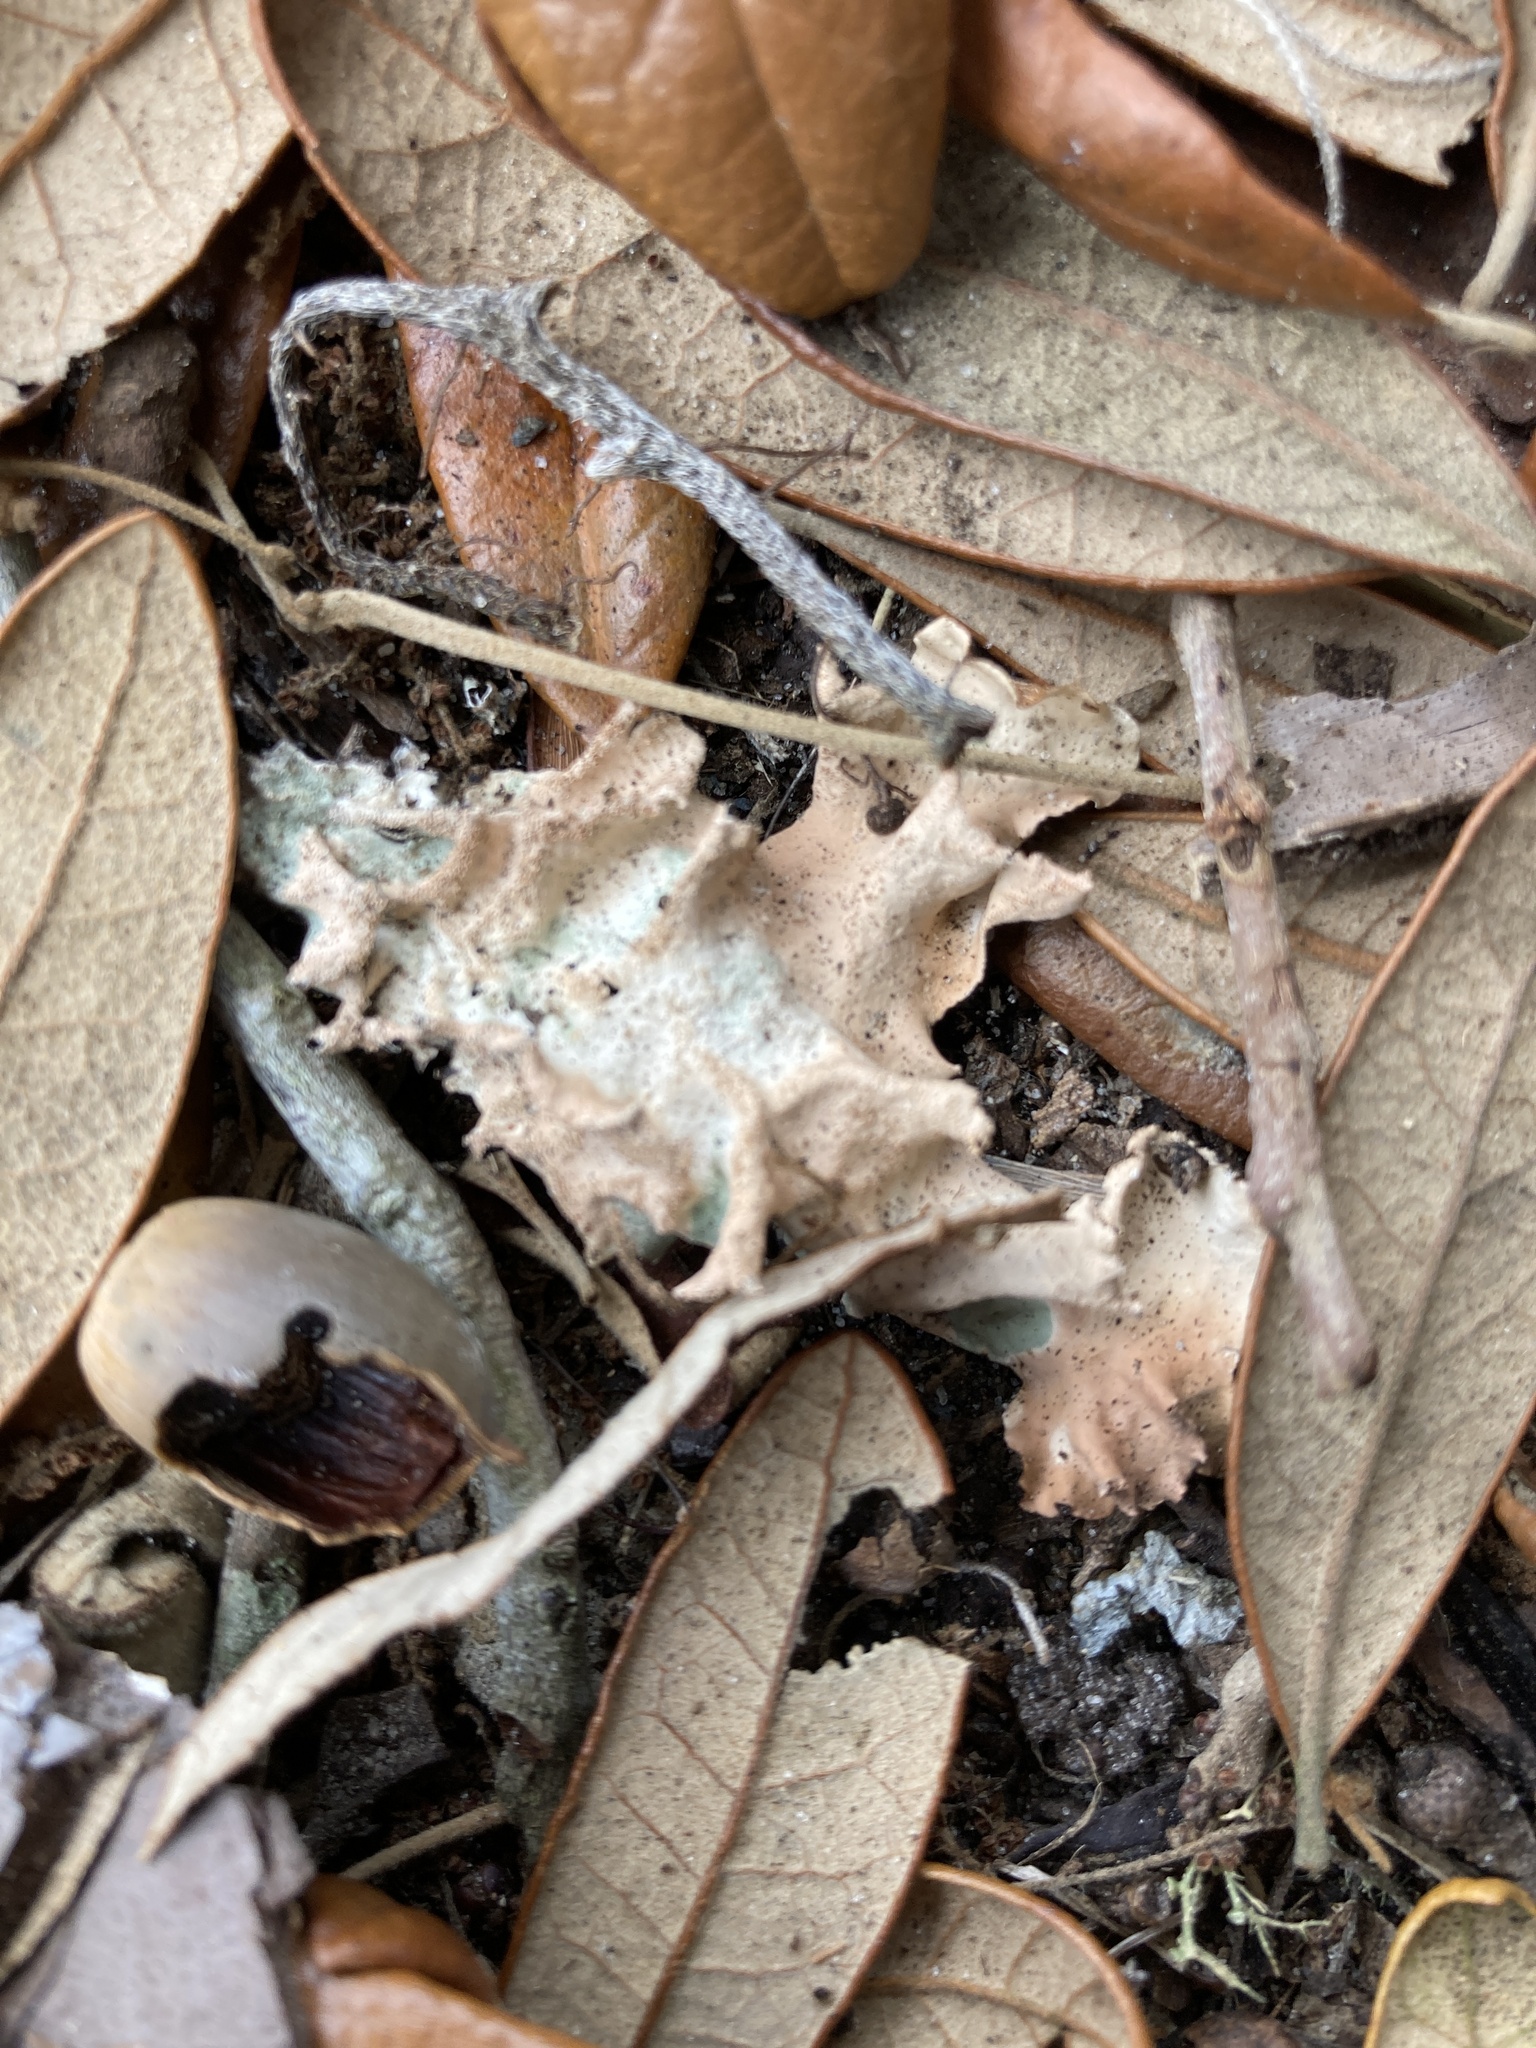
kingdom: Fungi
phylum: Ascomycota
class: Lecanoromycetes
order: Lecanorales
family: Parmeliaceae
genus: Parmotrema
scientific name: Parmotrema tinctorum
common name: Old gray ruffles
